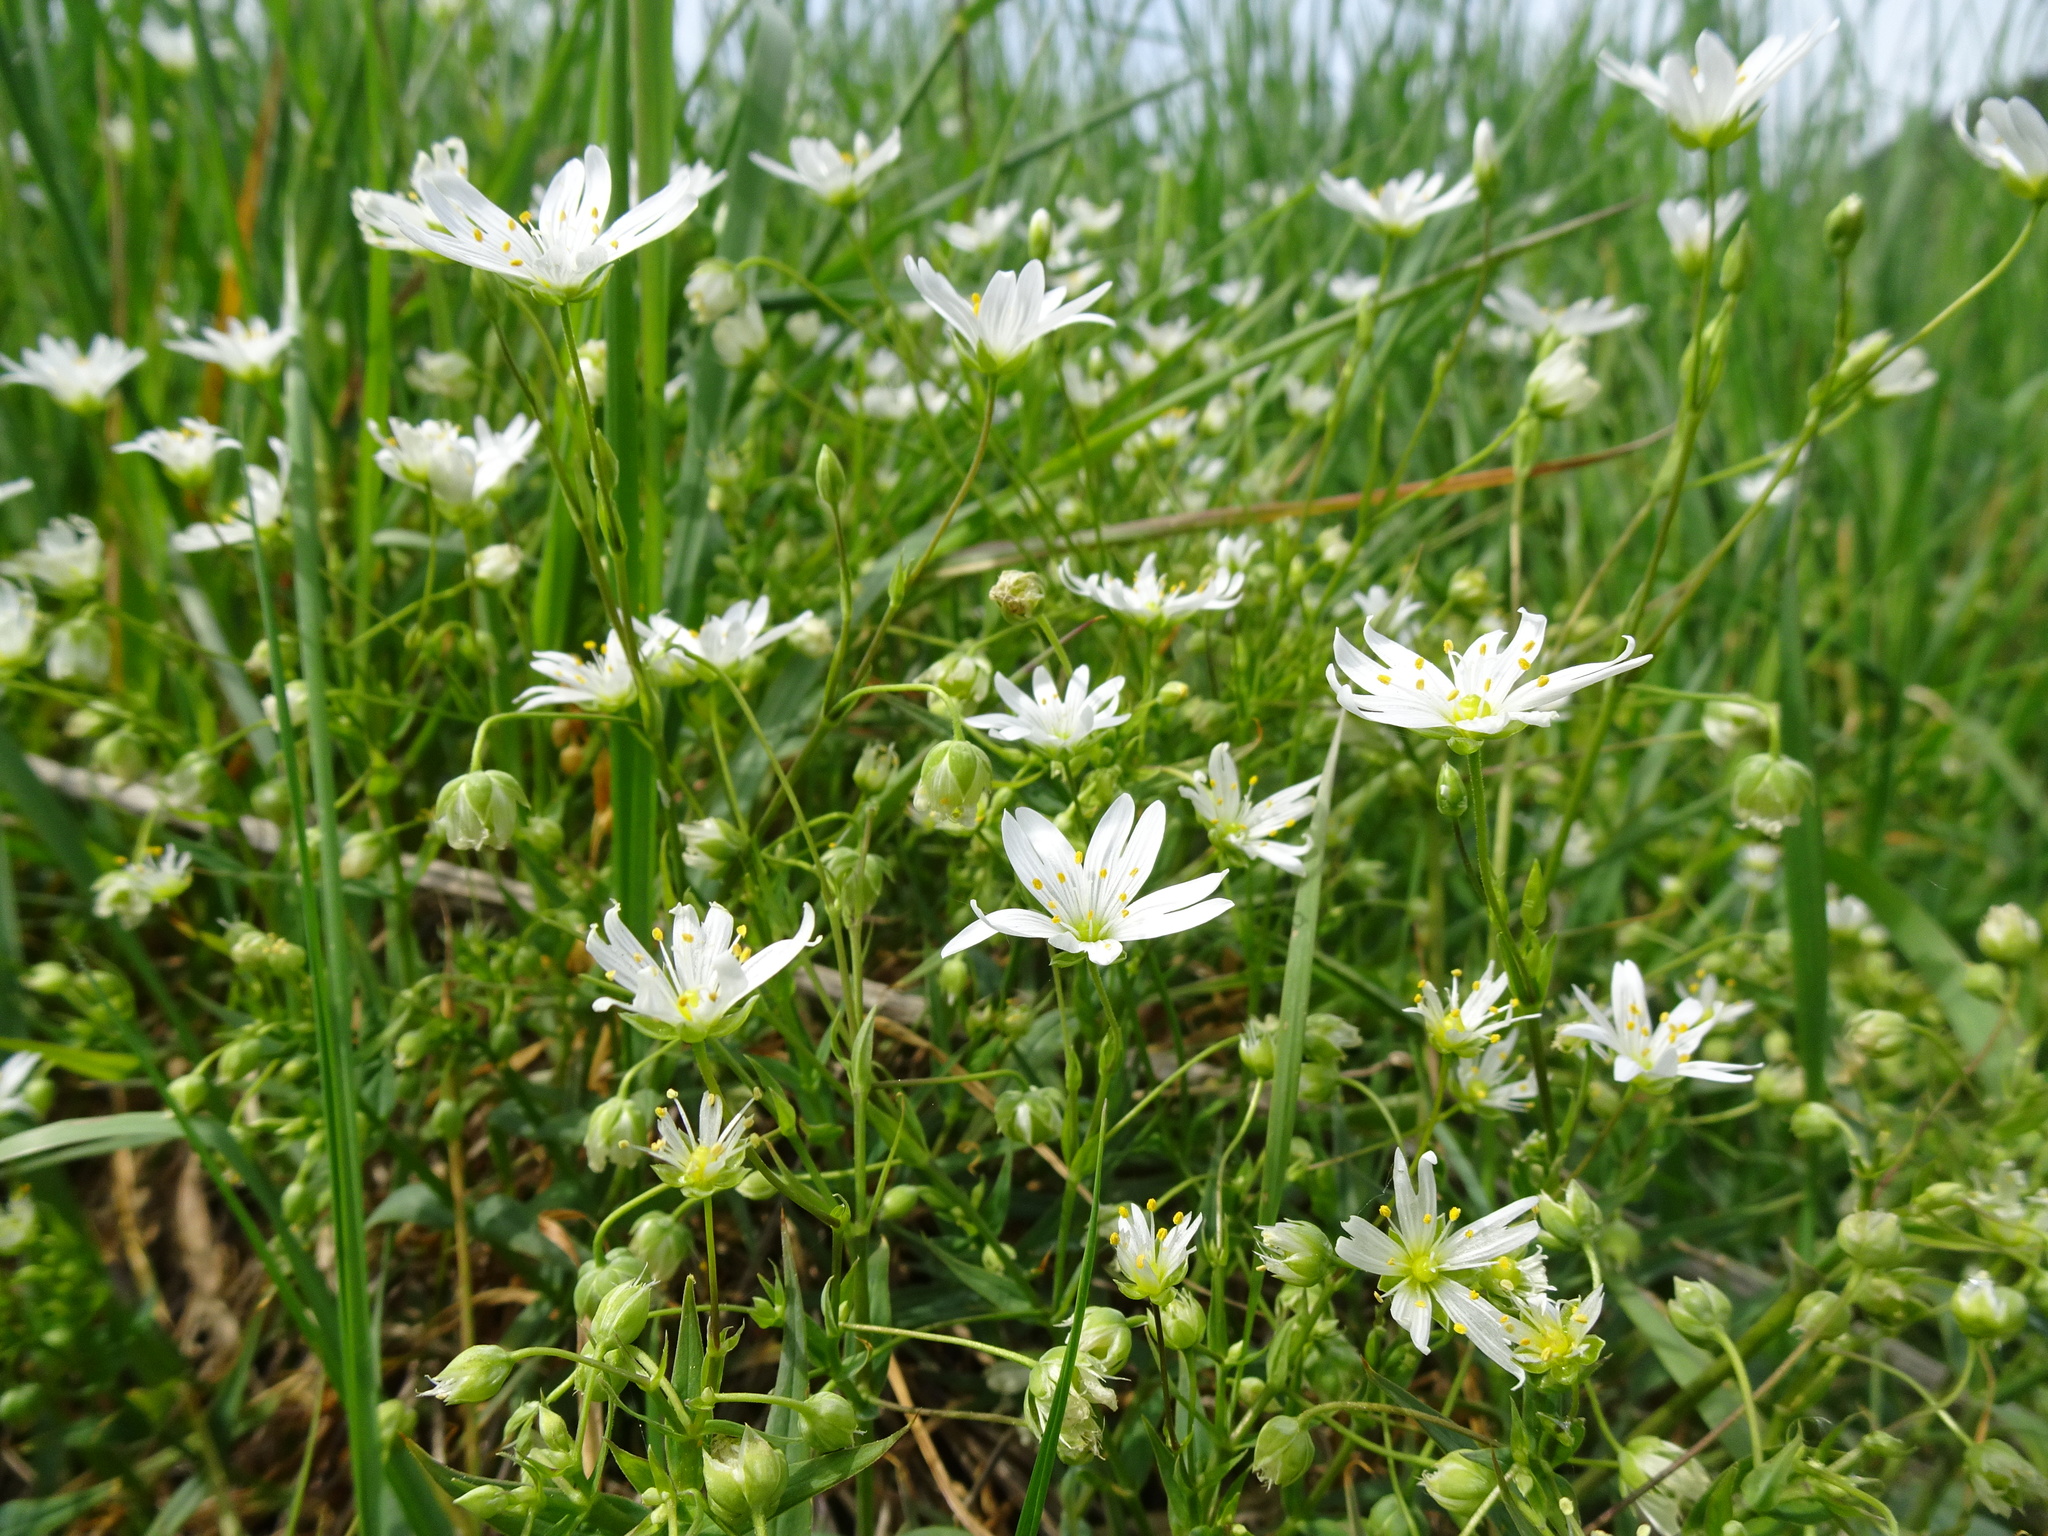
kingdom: Plantae
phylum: Tracheophyta
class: Magnoliopsida
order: Caryophyllales
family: Caryophyllaceae
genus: Rabelera
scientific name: Rabelera holostea
